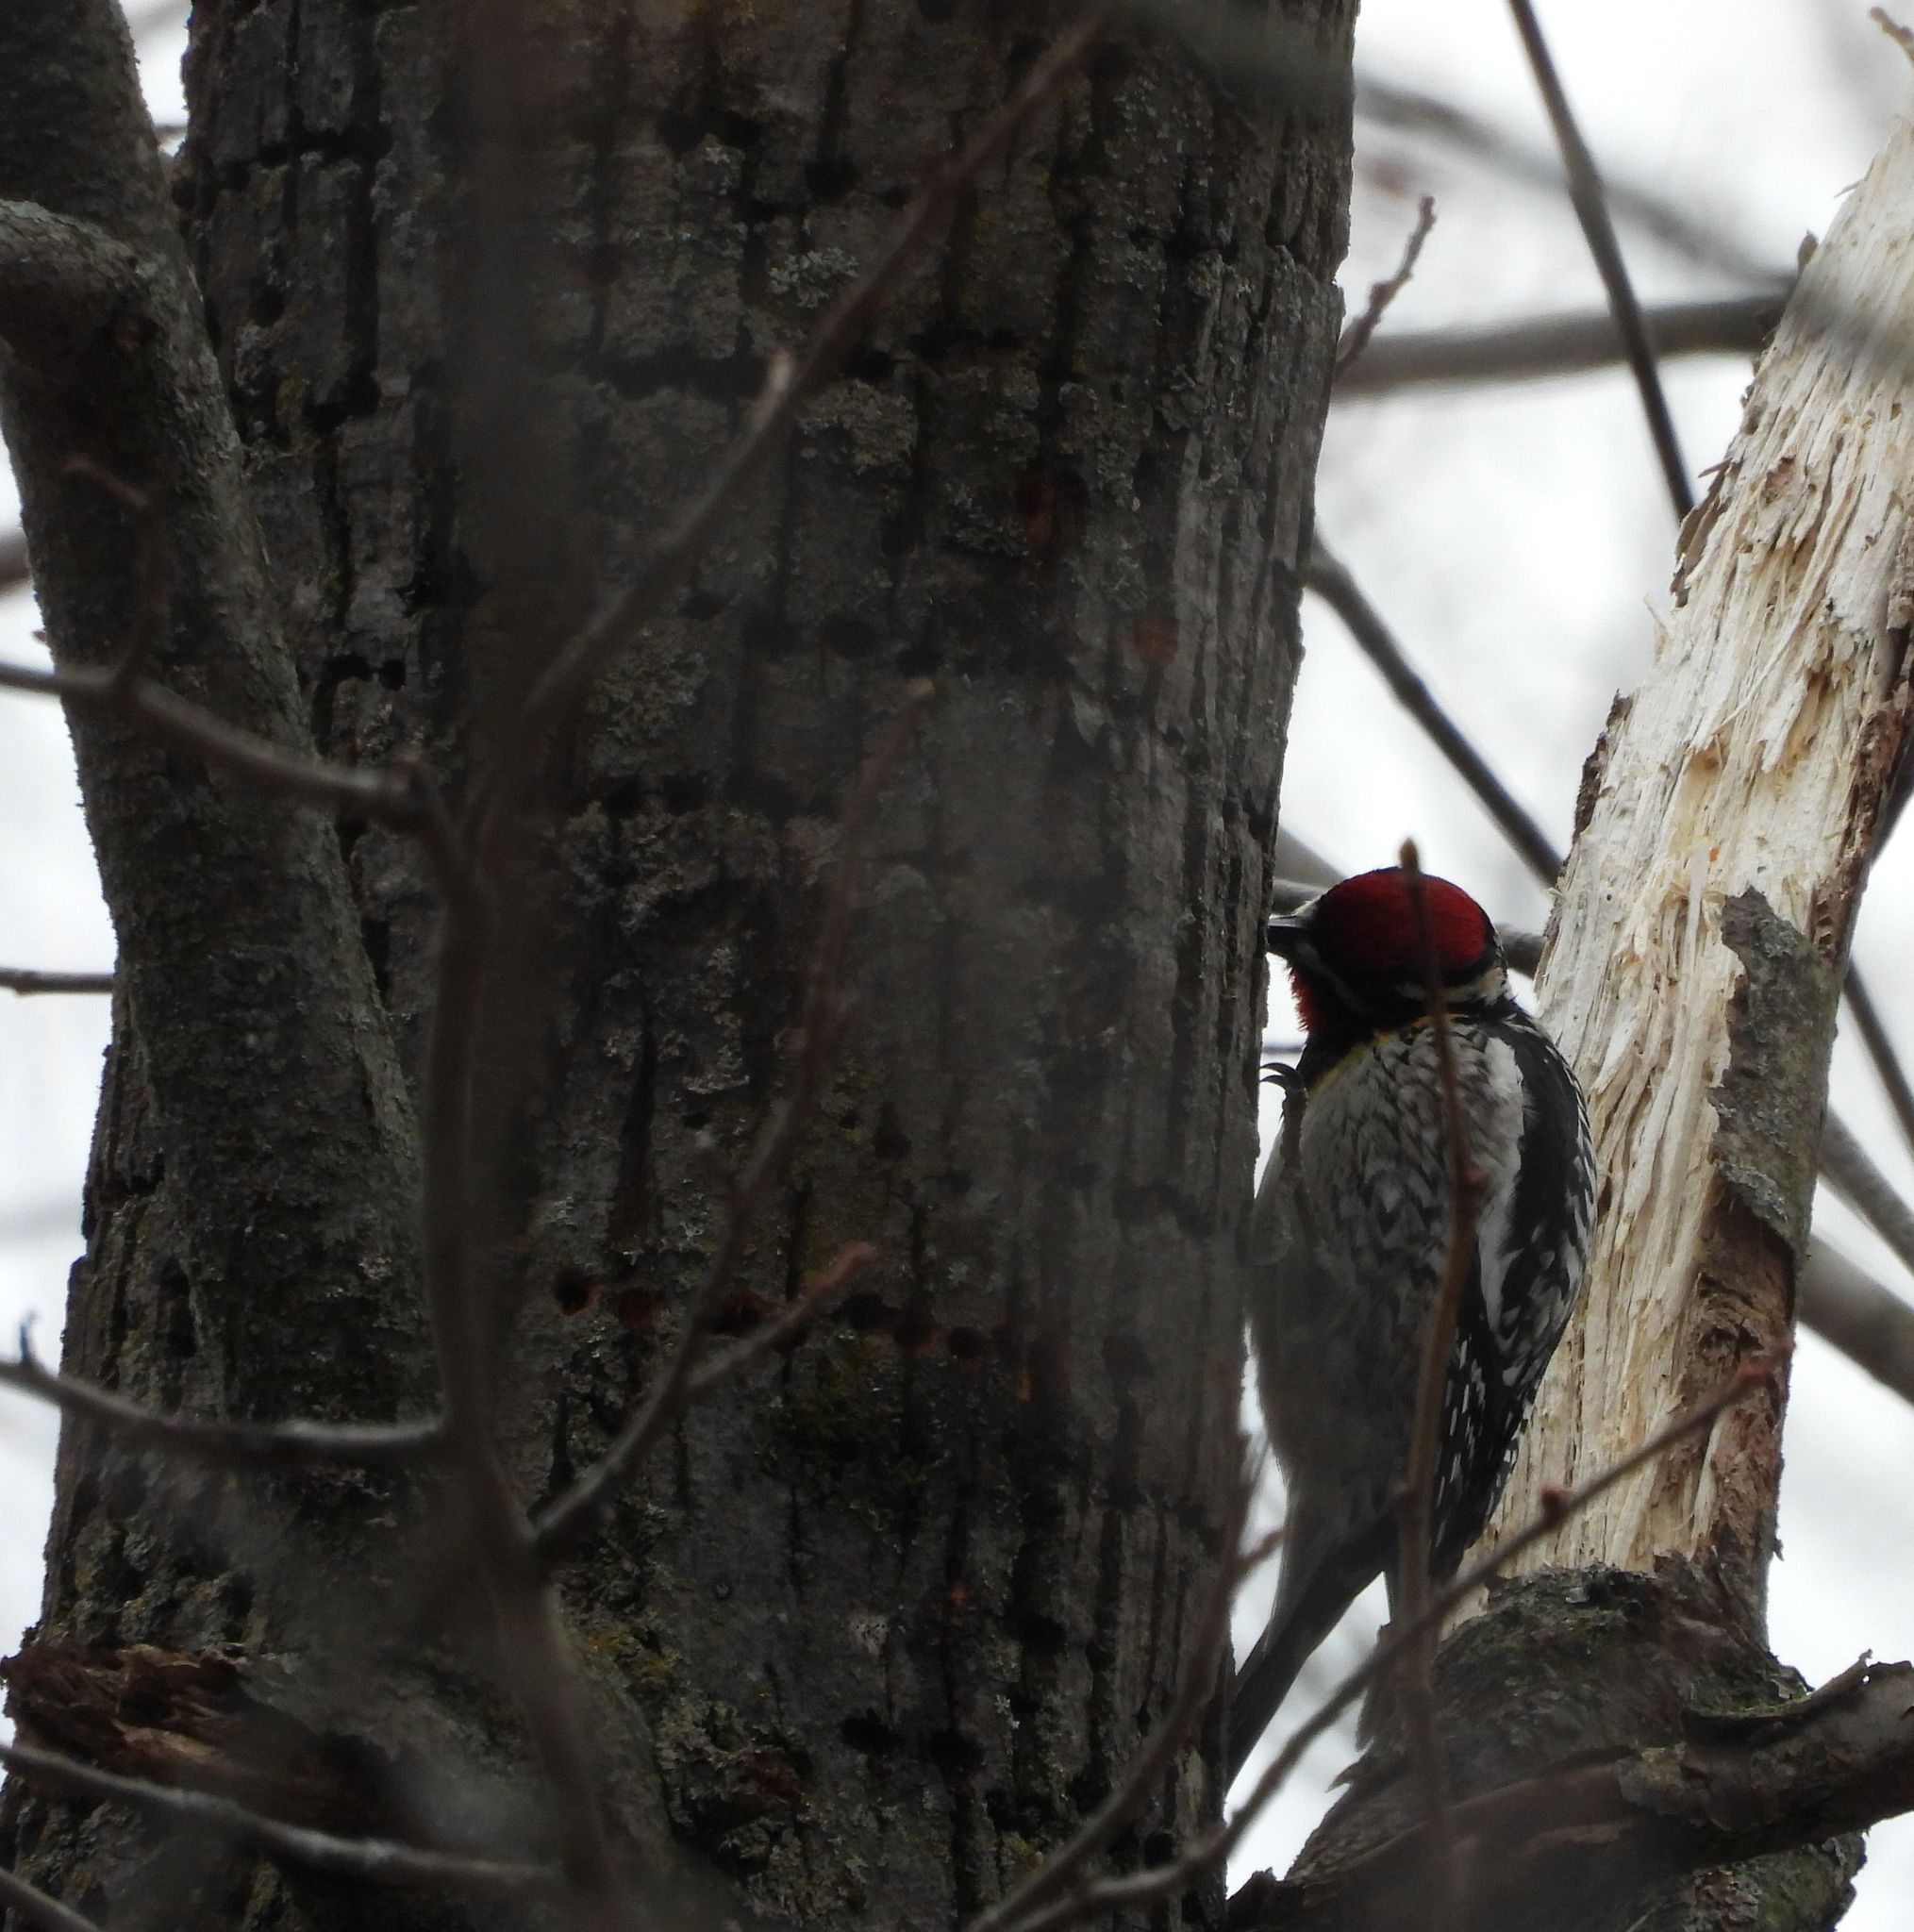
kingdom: Animalia
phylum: Chordata
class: Aves
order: Piciformes
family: Picidae
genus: Sphyrapicus
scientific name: Sphyrapicus varius
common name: Yellow-bellied sapsucker
